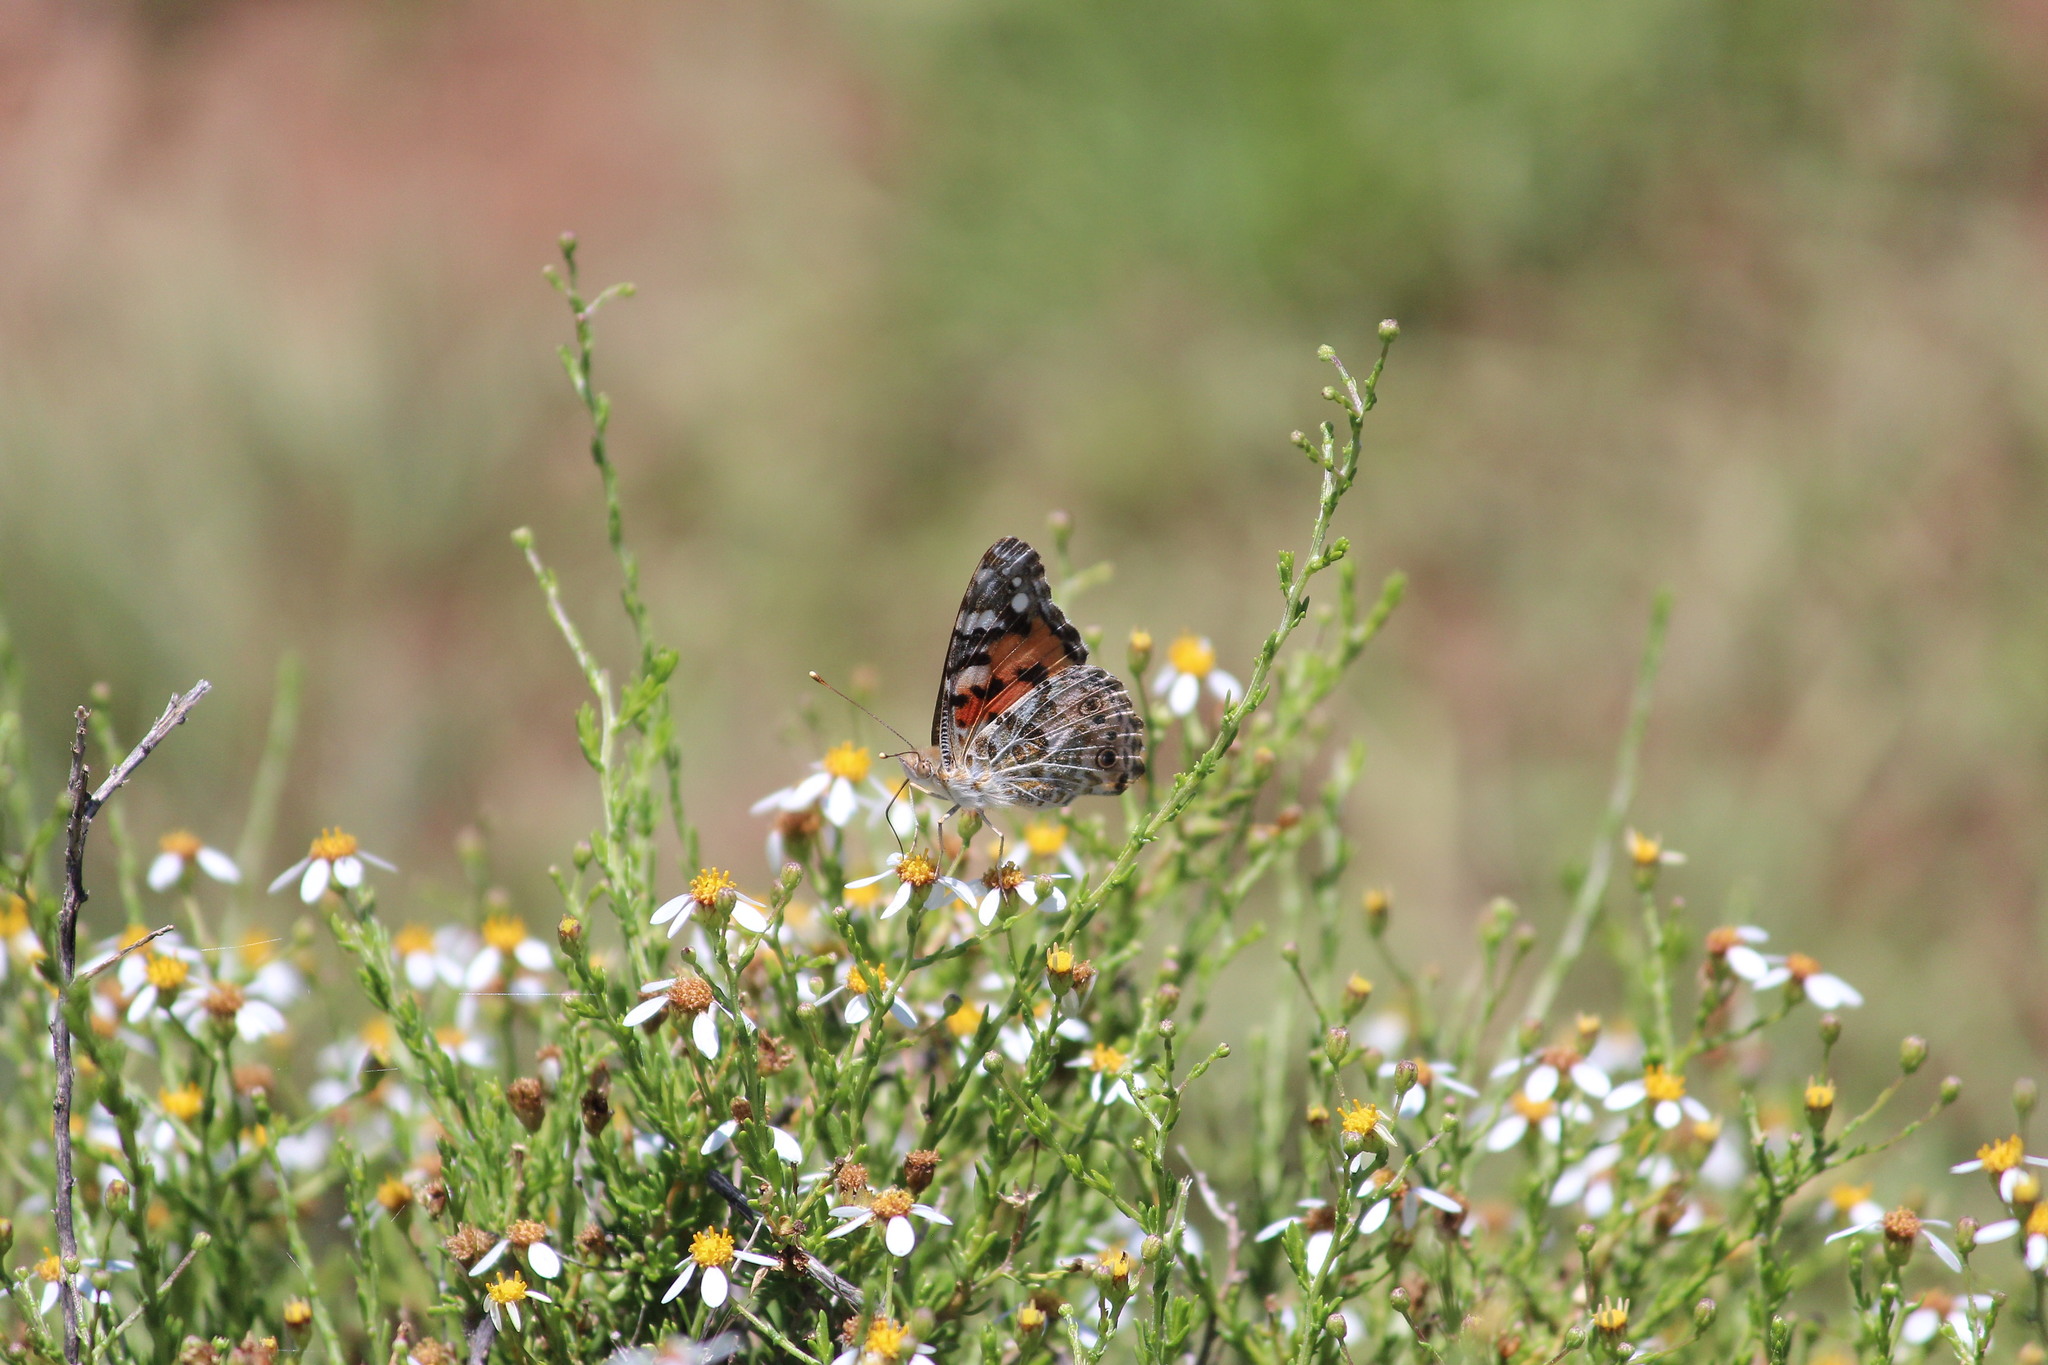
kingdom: Animalia
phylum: Arthropoda
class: Insecta
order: Lepidoptera
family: Nymphalidae
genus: Vanessa
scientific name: Vanessa cardui
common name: Painted lady
